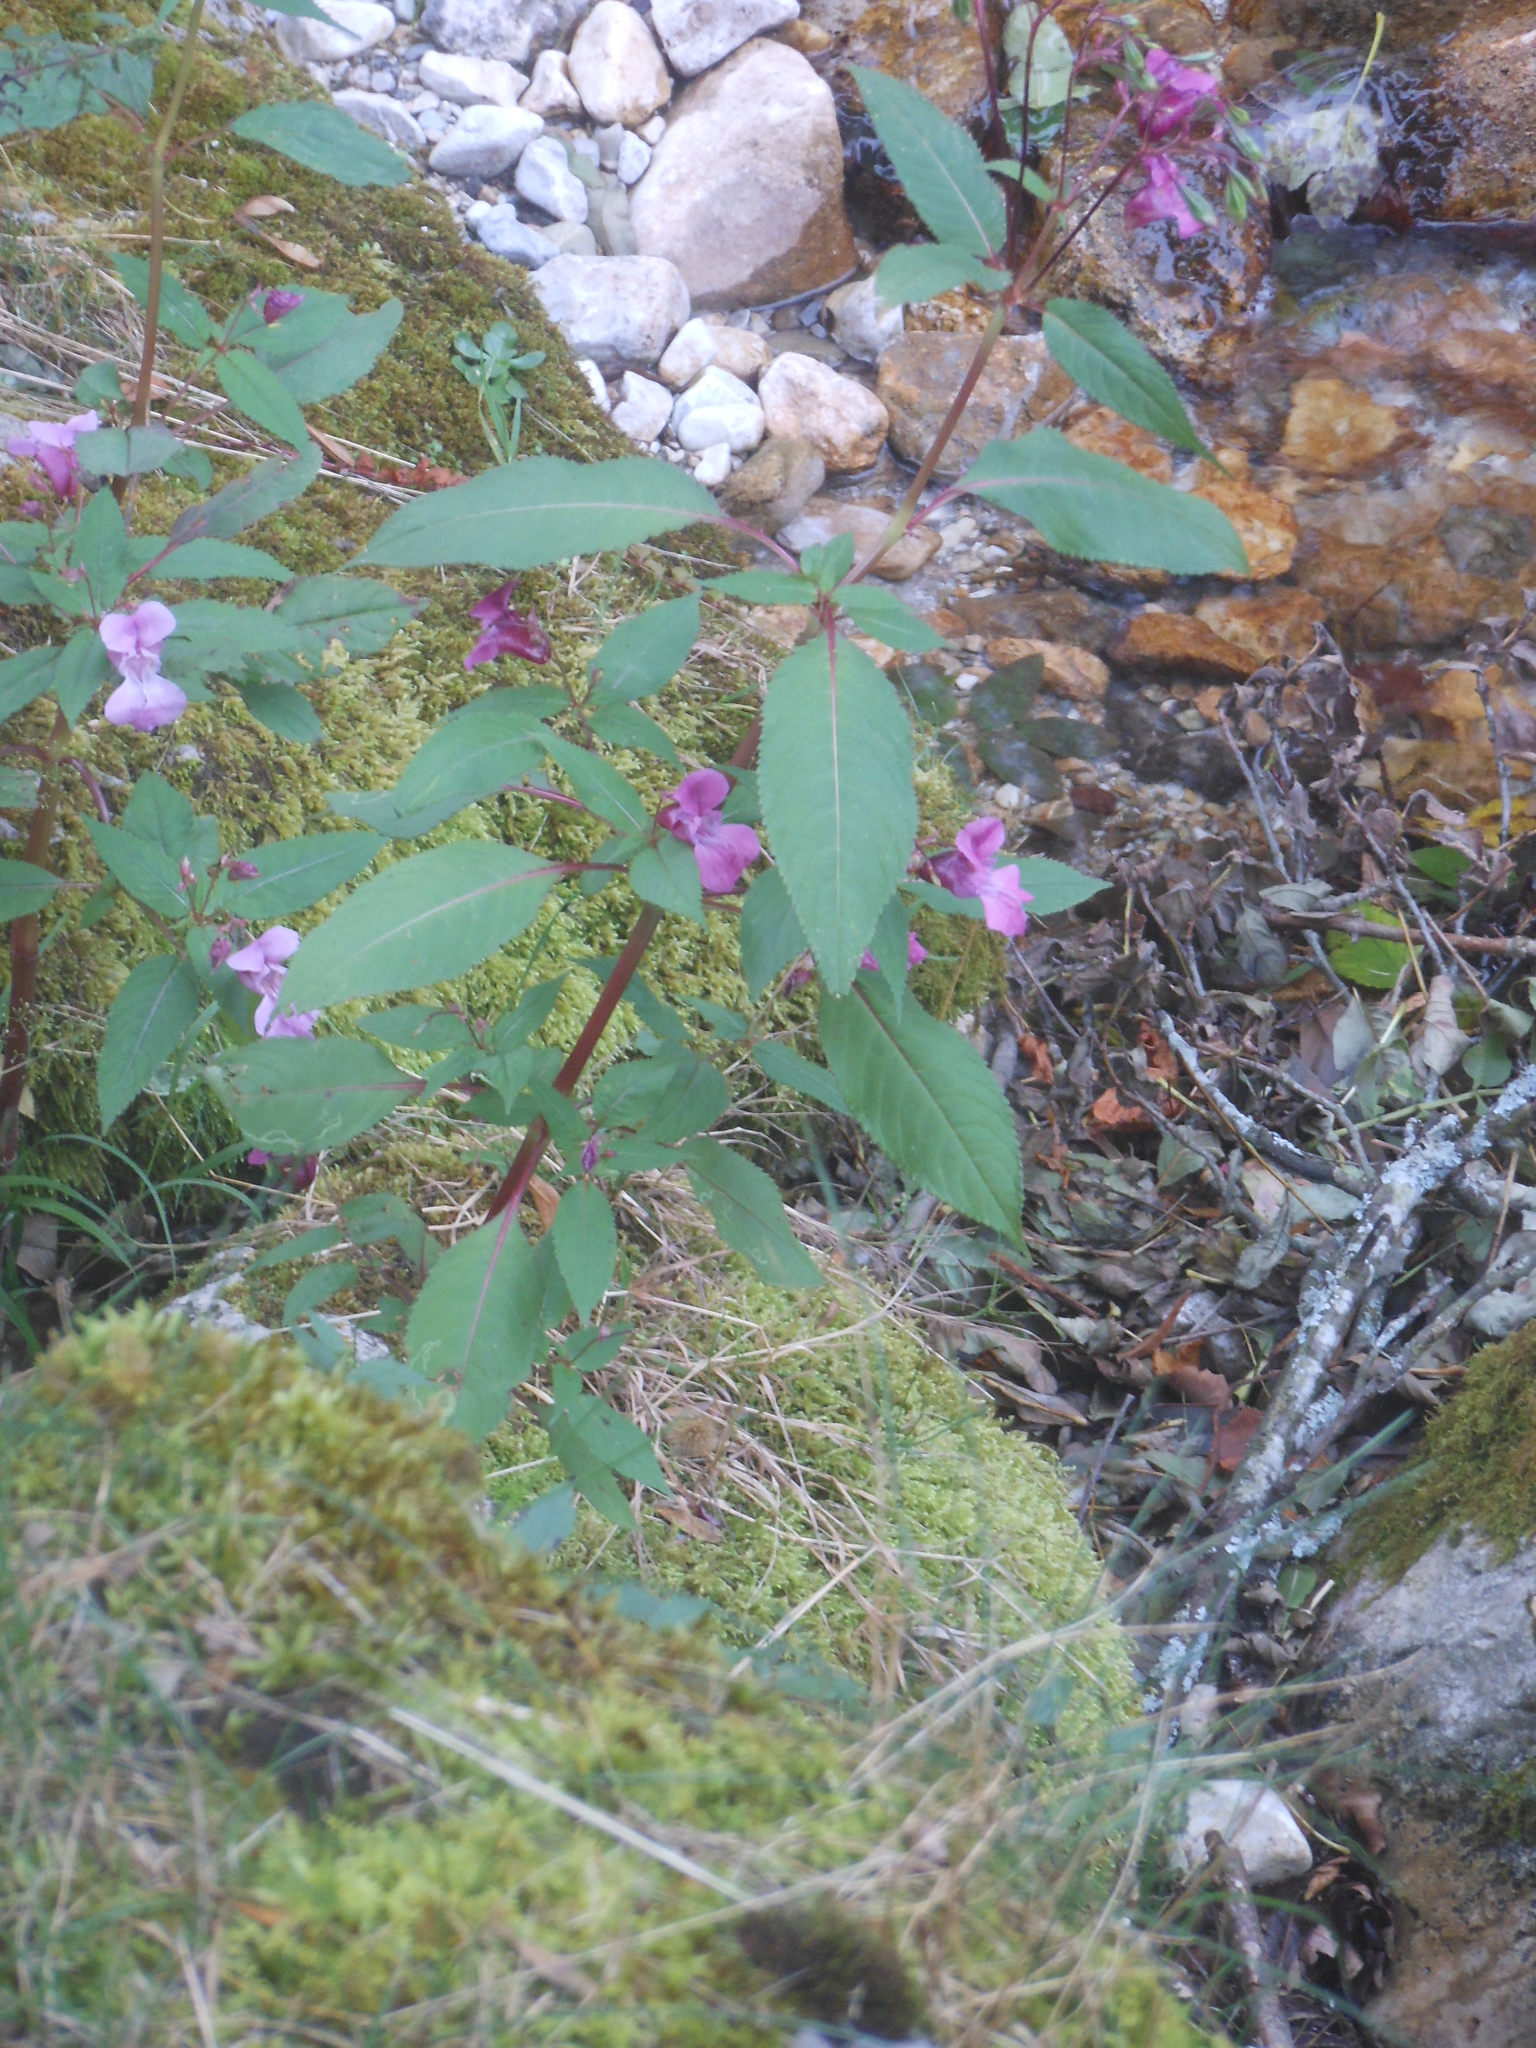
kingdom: Plantae
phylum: Tracheophyta
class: Magnoliopsida
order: Ericales
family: Balsaminaceae
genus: Impatiens
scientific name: Impatiens glandulifera
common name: Himalayan balsam
